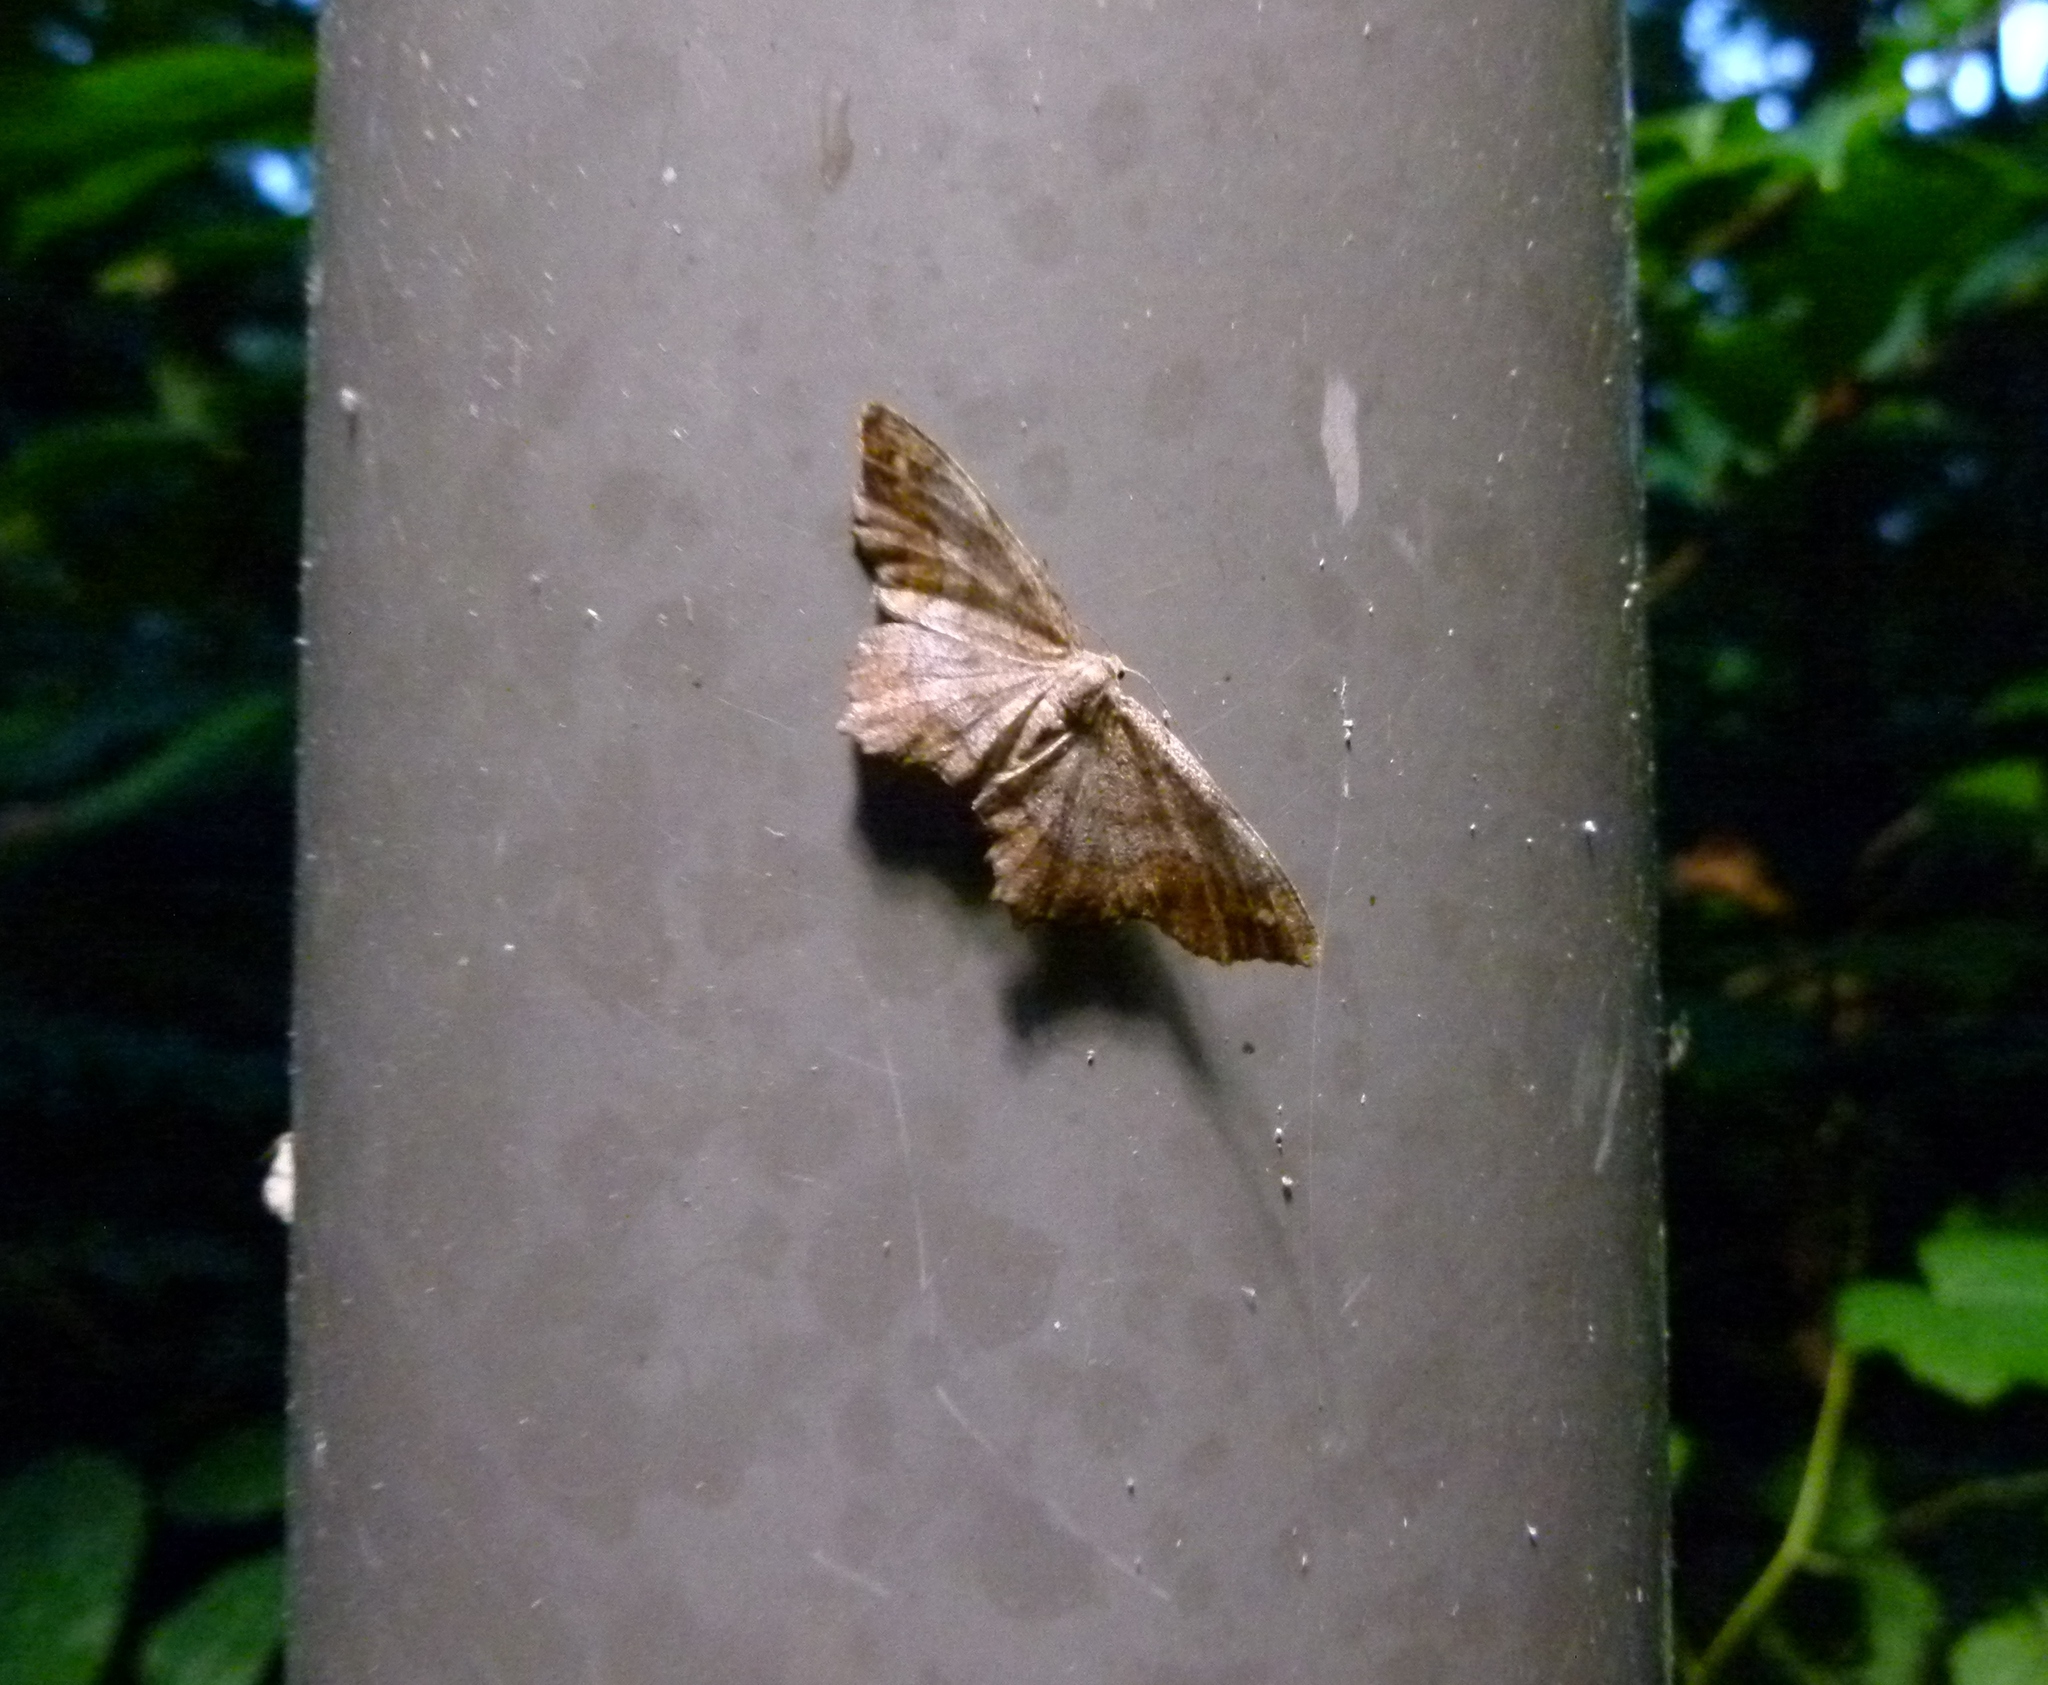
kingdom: Animalia
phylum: Arthropoda
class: Insecta
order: Lepidoptera
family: Geometridae
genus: Hypagyrtis
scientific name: Hypagyrtis unipunctata
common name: One-spotted variant
